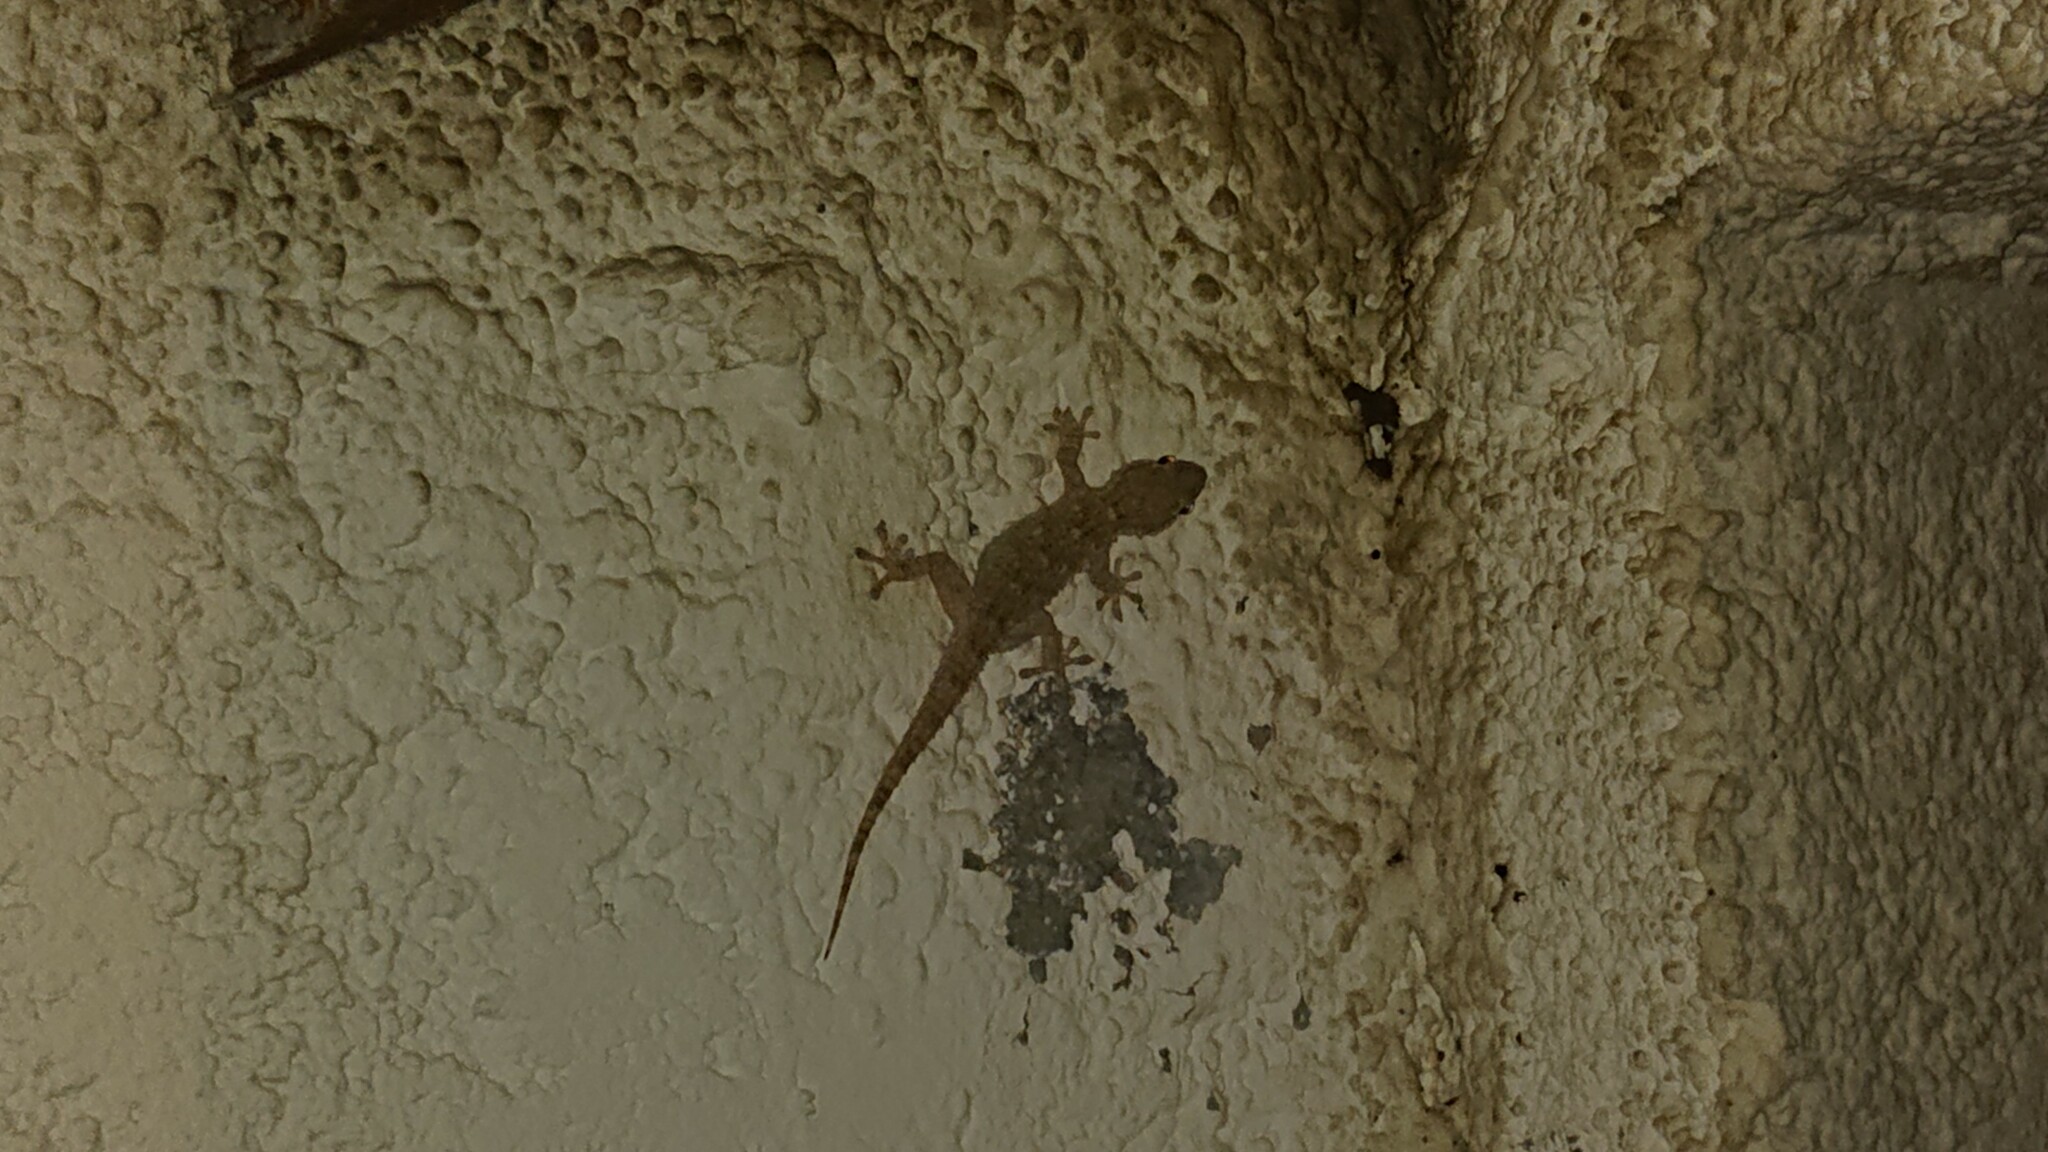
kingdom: Animalia
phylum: Chordata
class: Squamata
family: Phyllodactylidae
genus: Tarentola
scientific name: Tarentola mauritanica
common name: Moorish gecko
